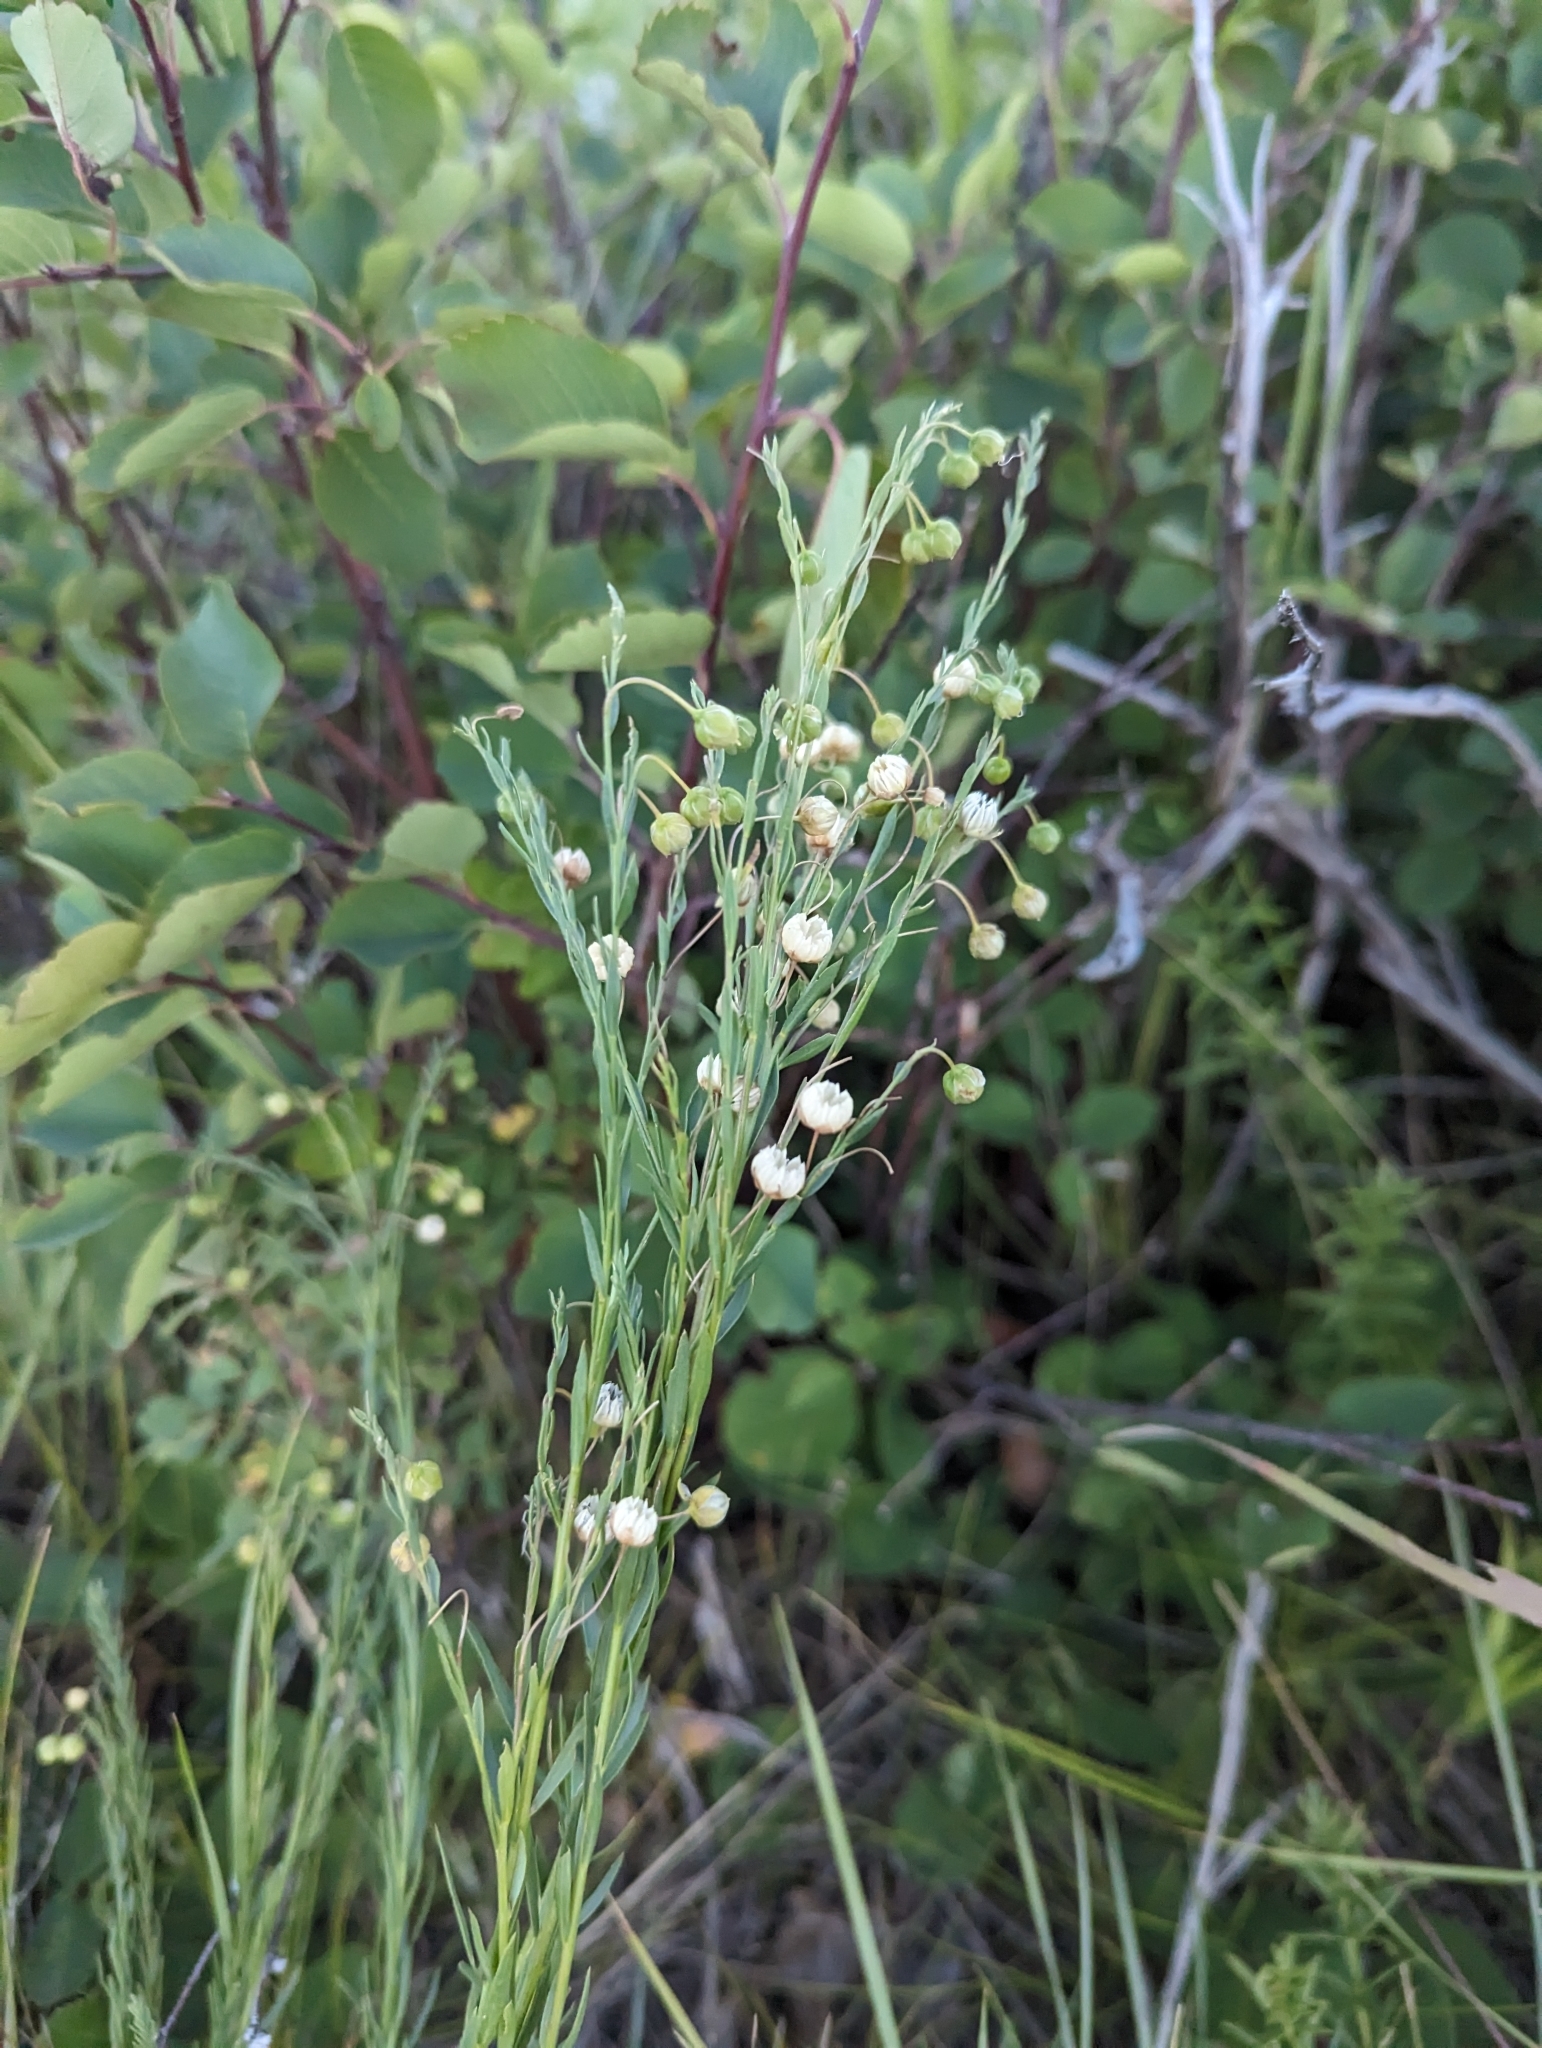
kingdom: Plantae
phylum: Tracheophyta
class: Magnoliopsida
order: Malpighiales
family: Linaceae
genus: Linum
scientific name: Linum lewisii
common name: Prairie flax
